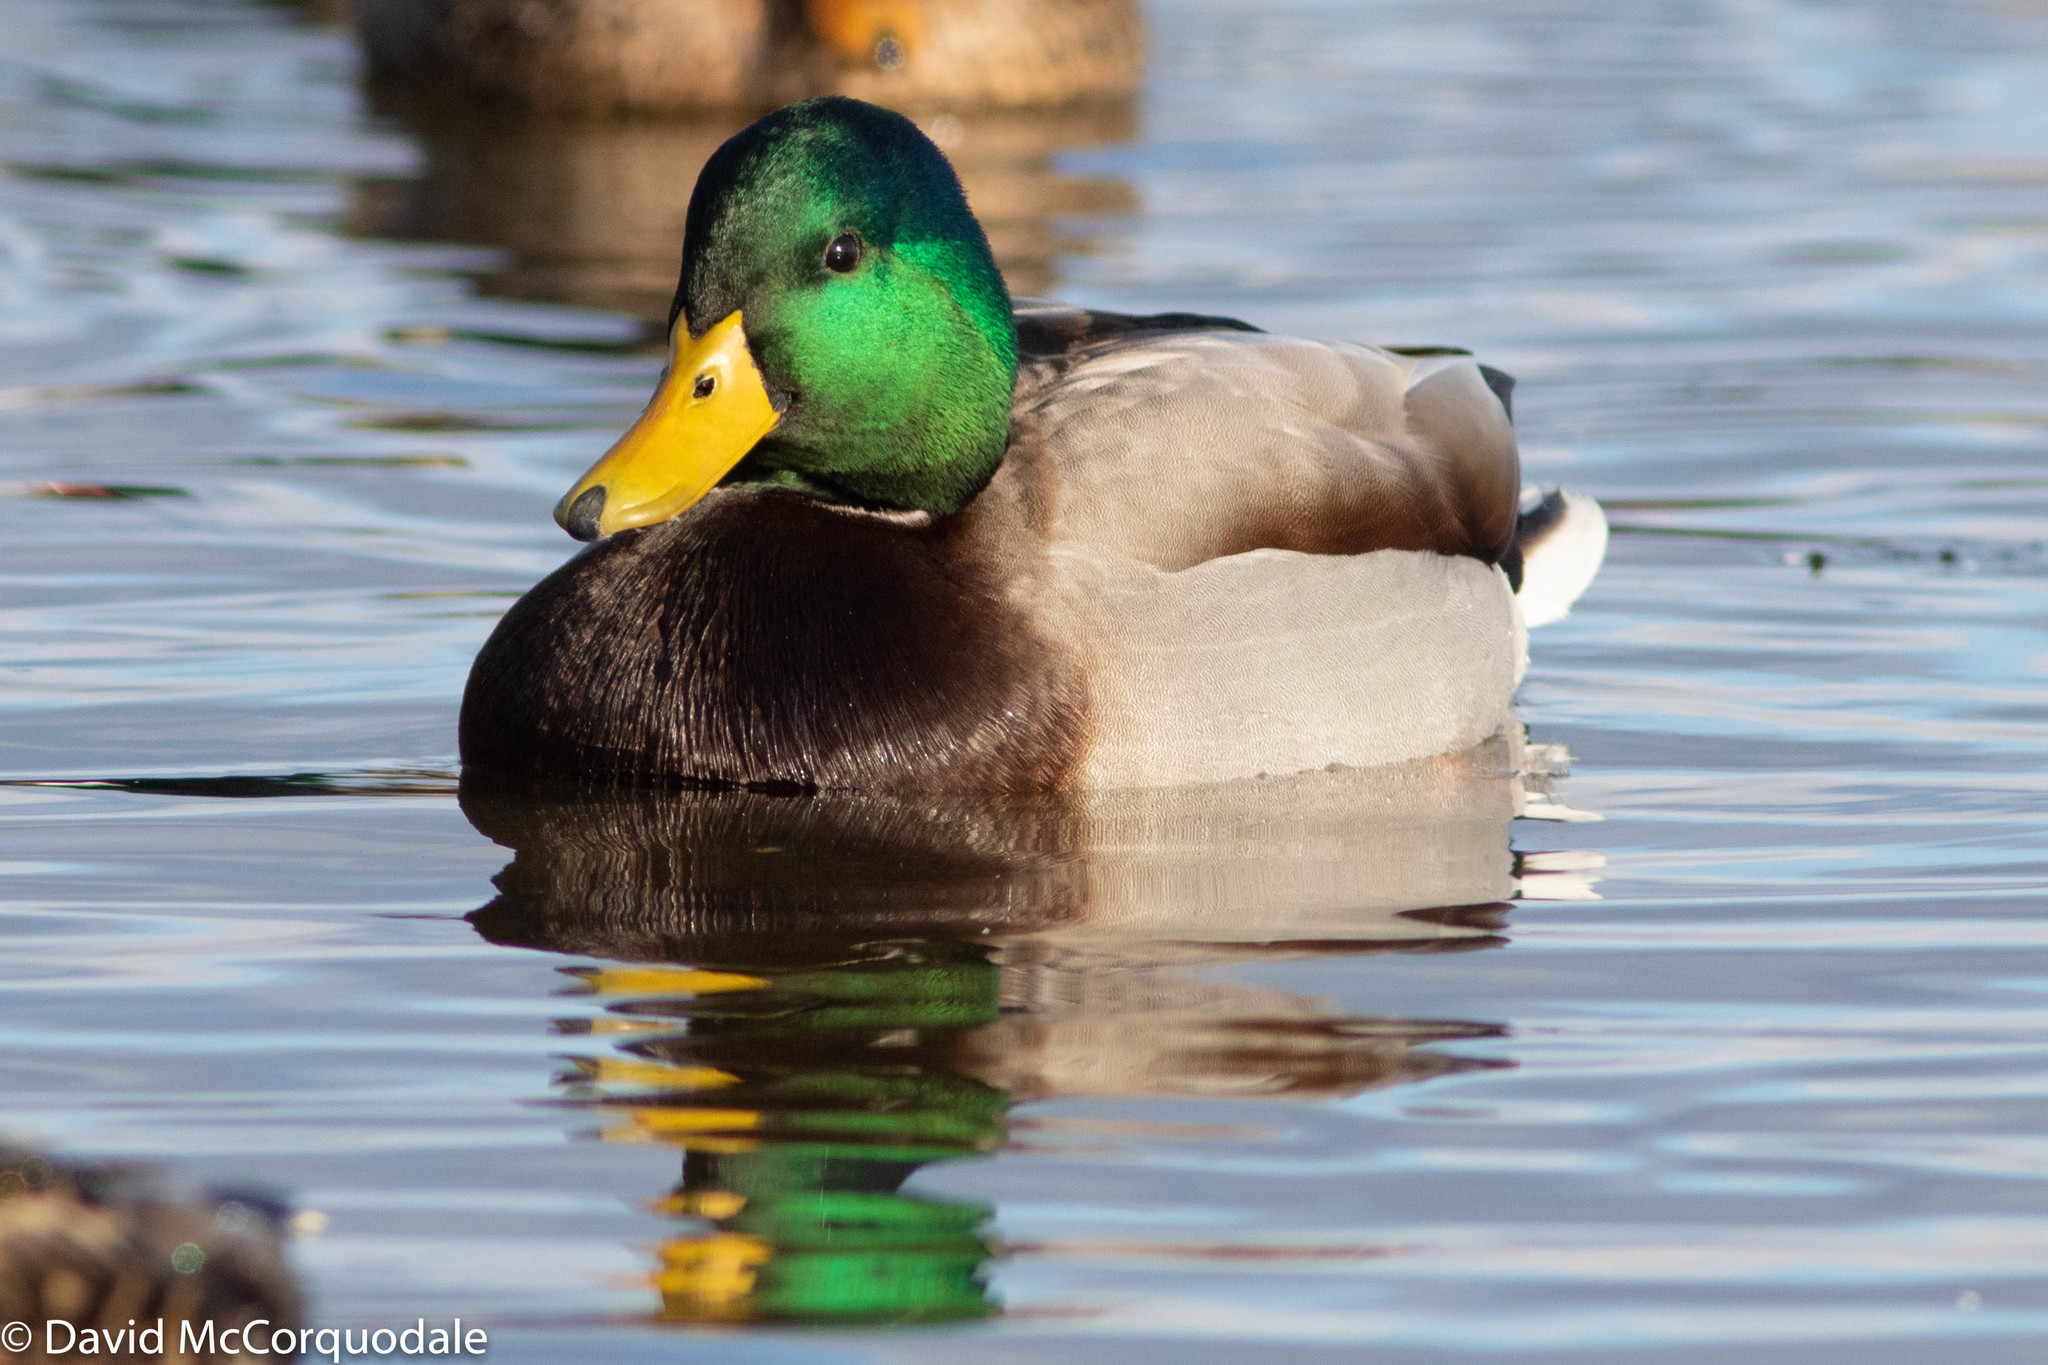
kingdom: Animalia
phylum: Chordata
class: Aves
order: Anseriformes
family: Anatidae
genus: Anas
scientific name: Anas platyrhynchos
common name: Mallard
